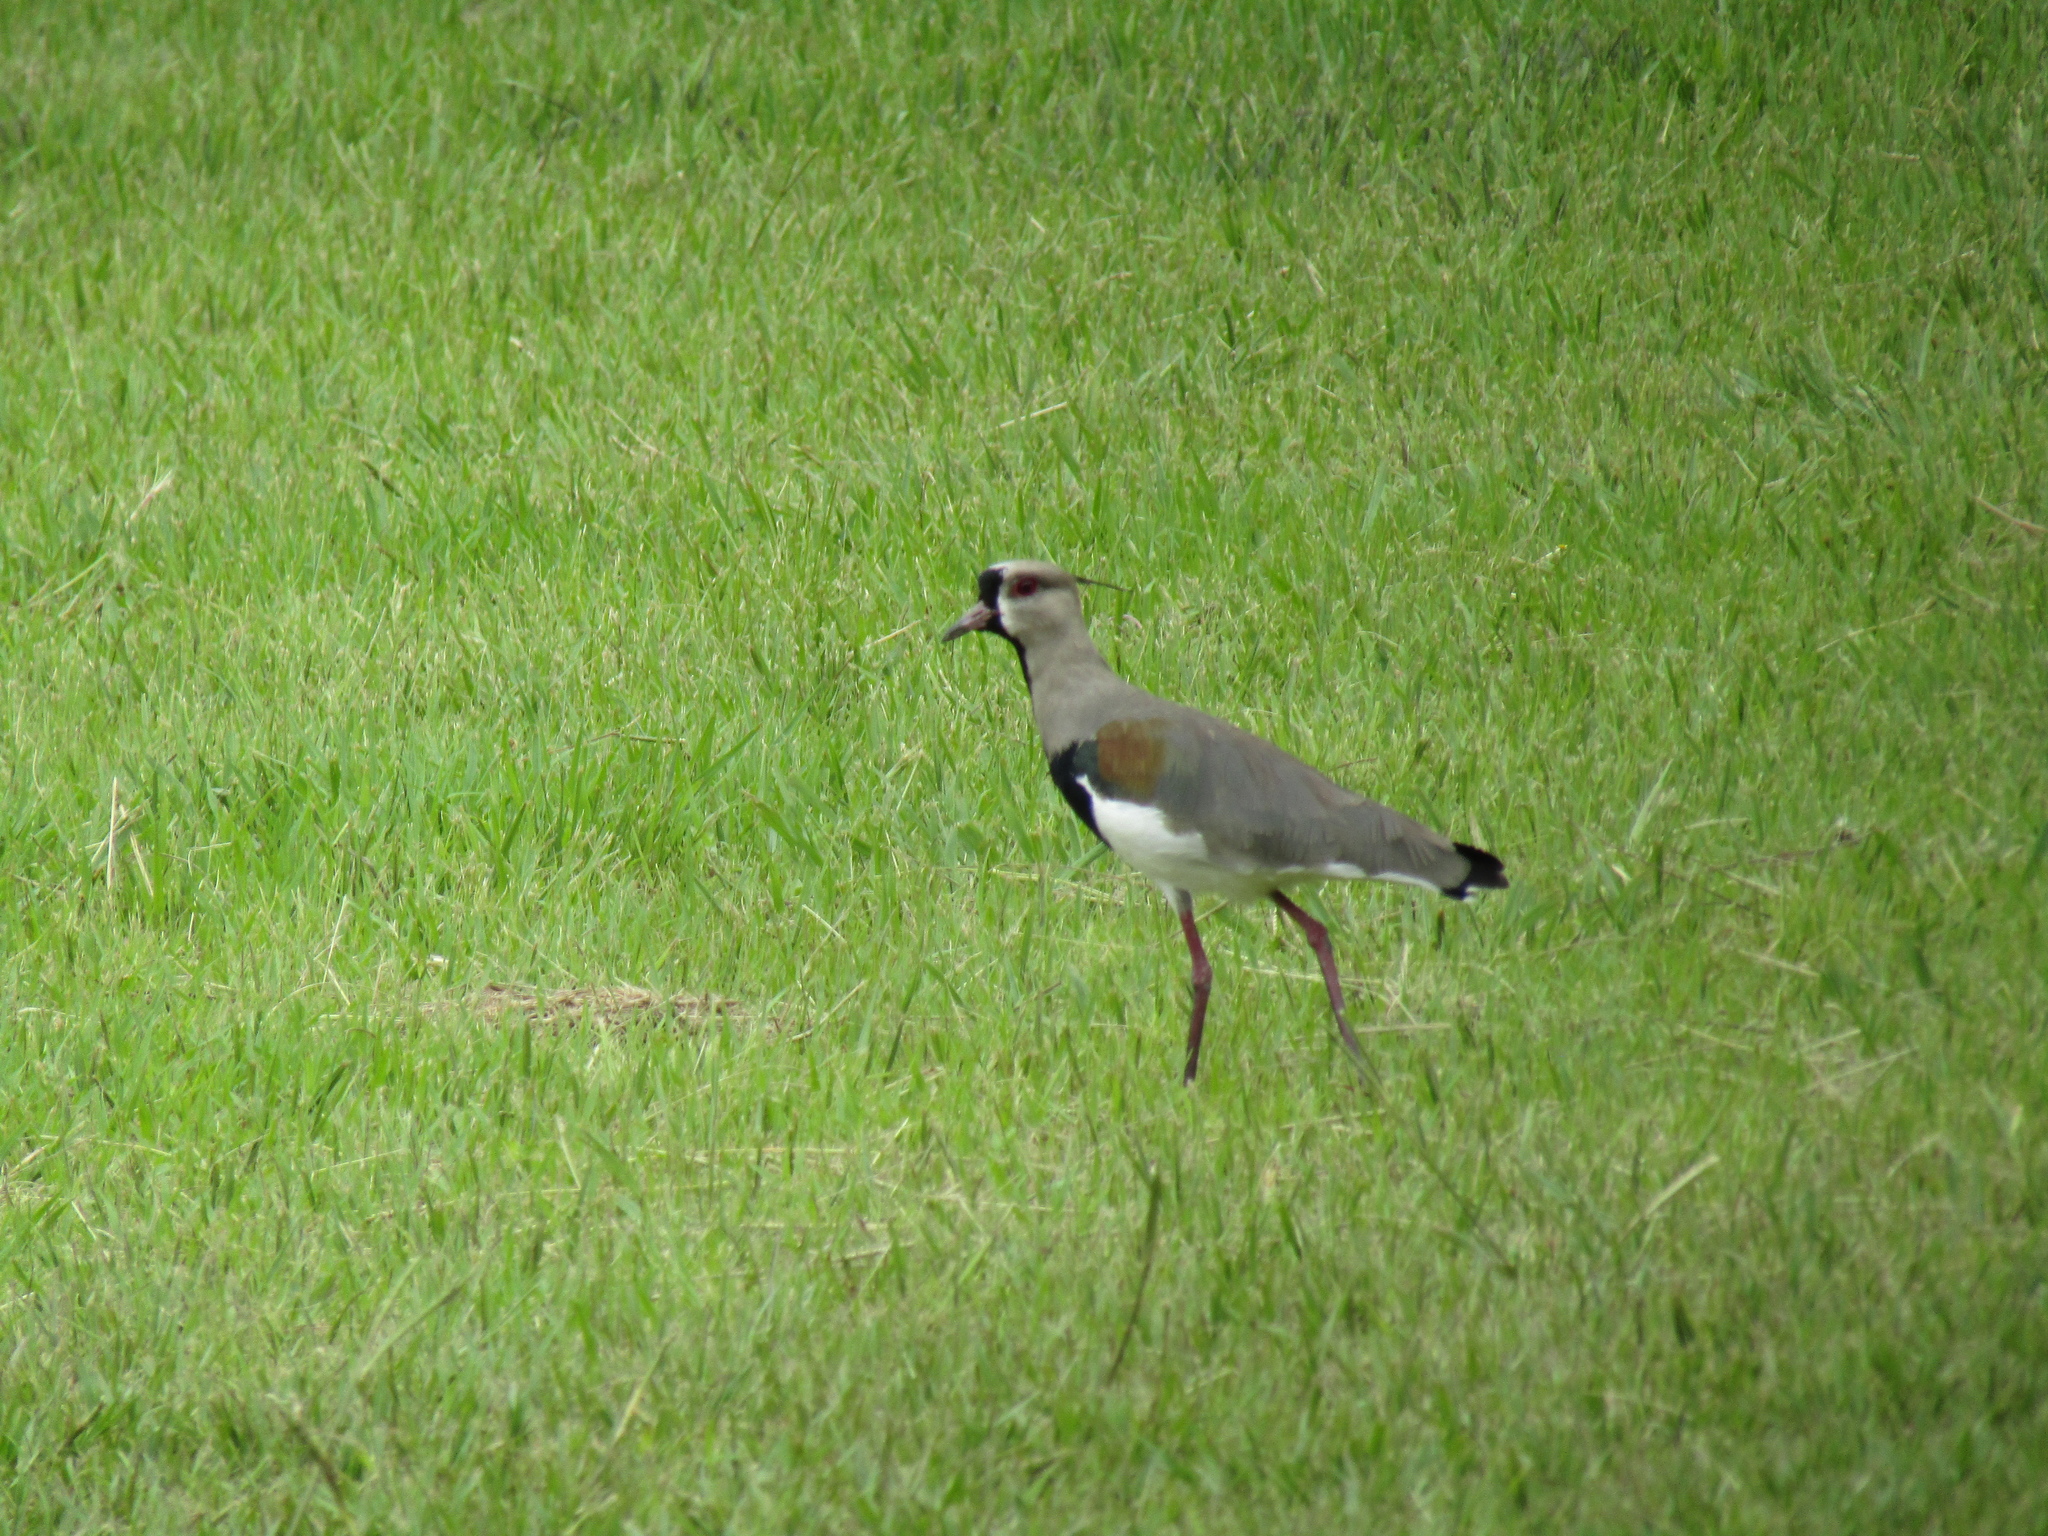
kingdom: Animalia
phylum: Chordata
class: Aves
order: Charadriiformes
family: Charadriidae
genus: Vanellus
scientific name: Vanellus chilensis
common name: Southern lapwing
